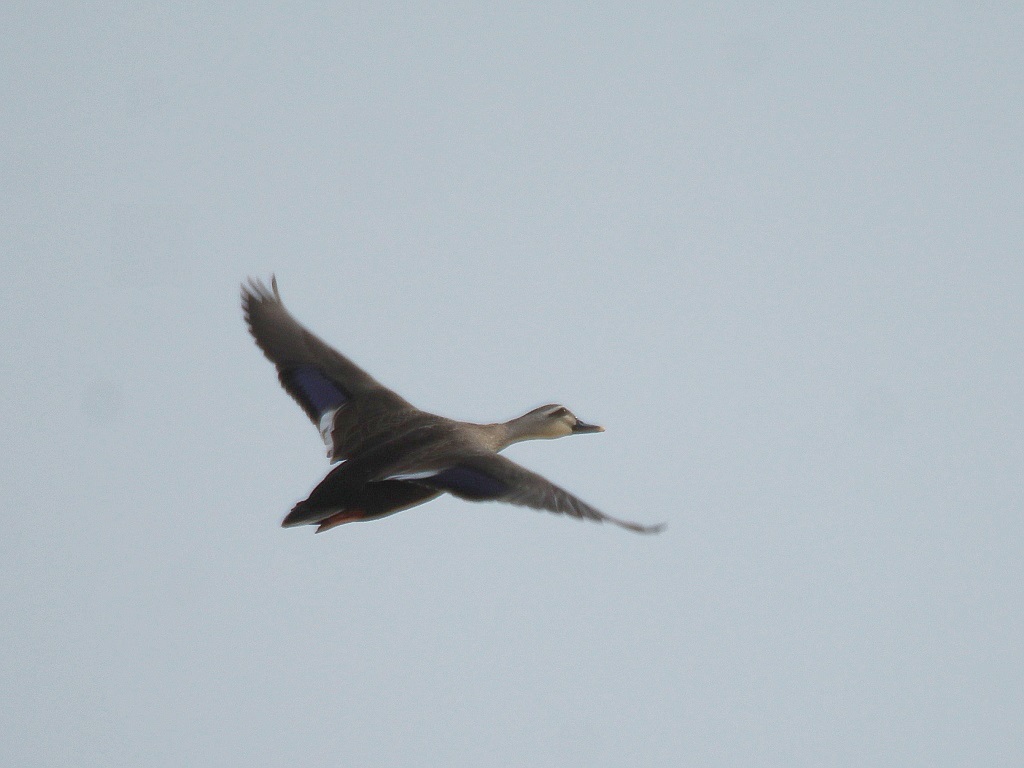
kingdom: Animalia
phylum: Chordata
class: Aves
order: Anseriformes
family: Anatidae
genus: Anas
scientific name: Anas zonorhyncha
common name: Eastern spot-billed duck
